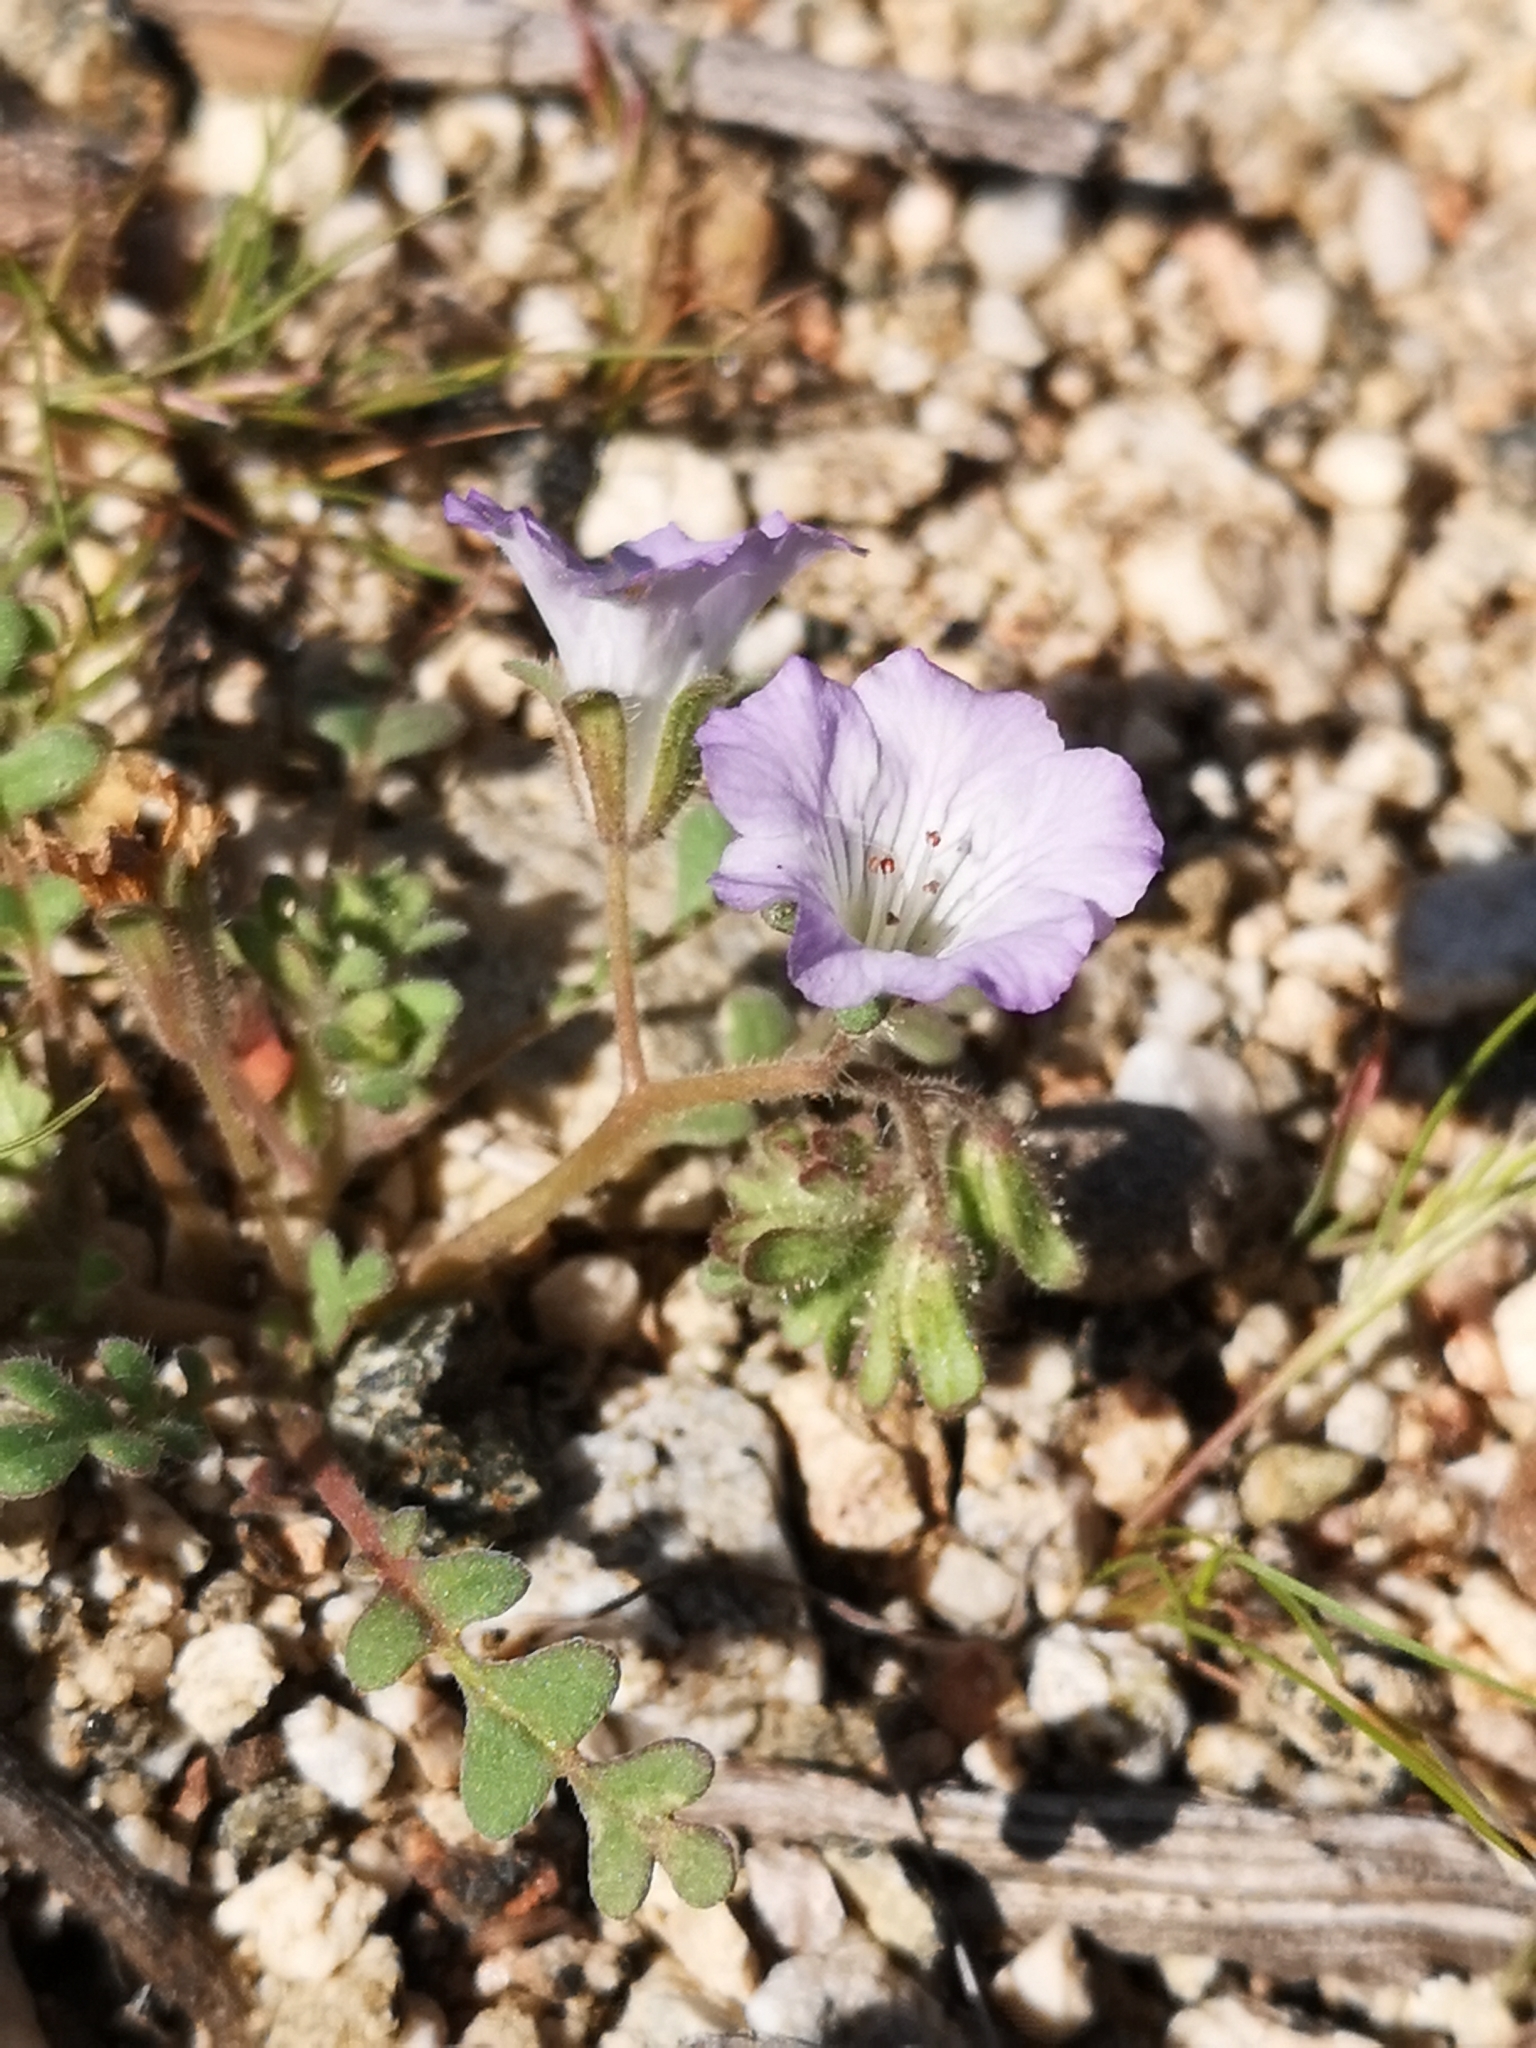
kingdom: Plantae
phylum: Tracheophyta
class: Magnoliopsida
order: Boraginales
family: Hydrophyllaceae
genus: Phacelia
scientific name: Phacelia douglasii
